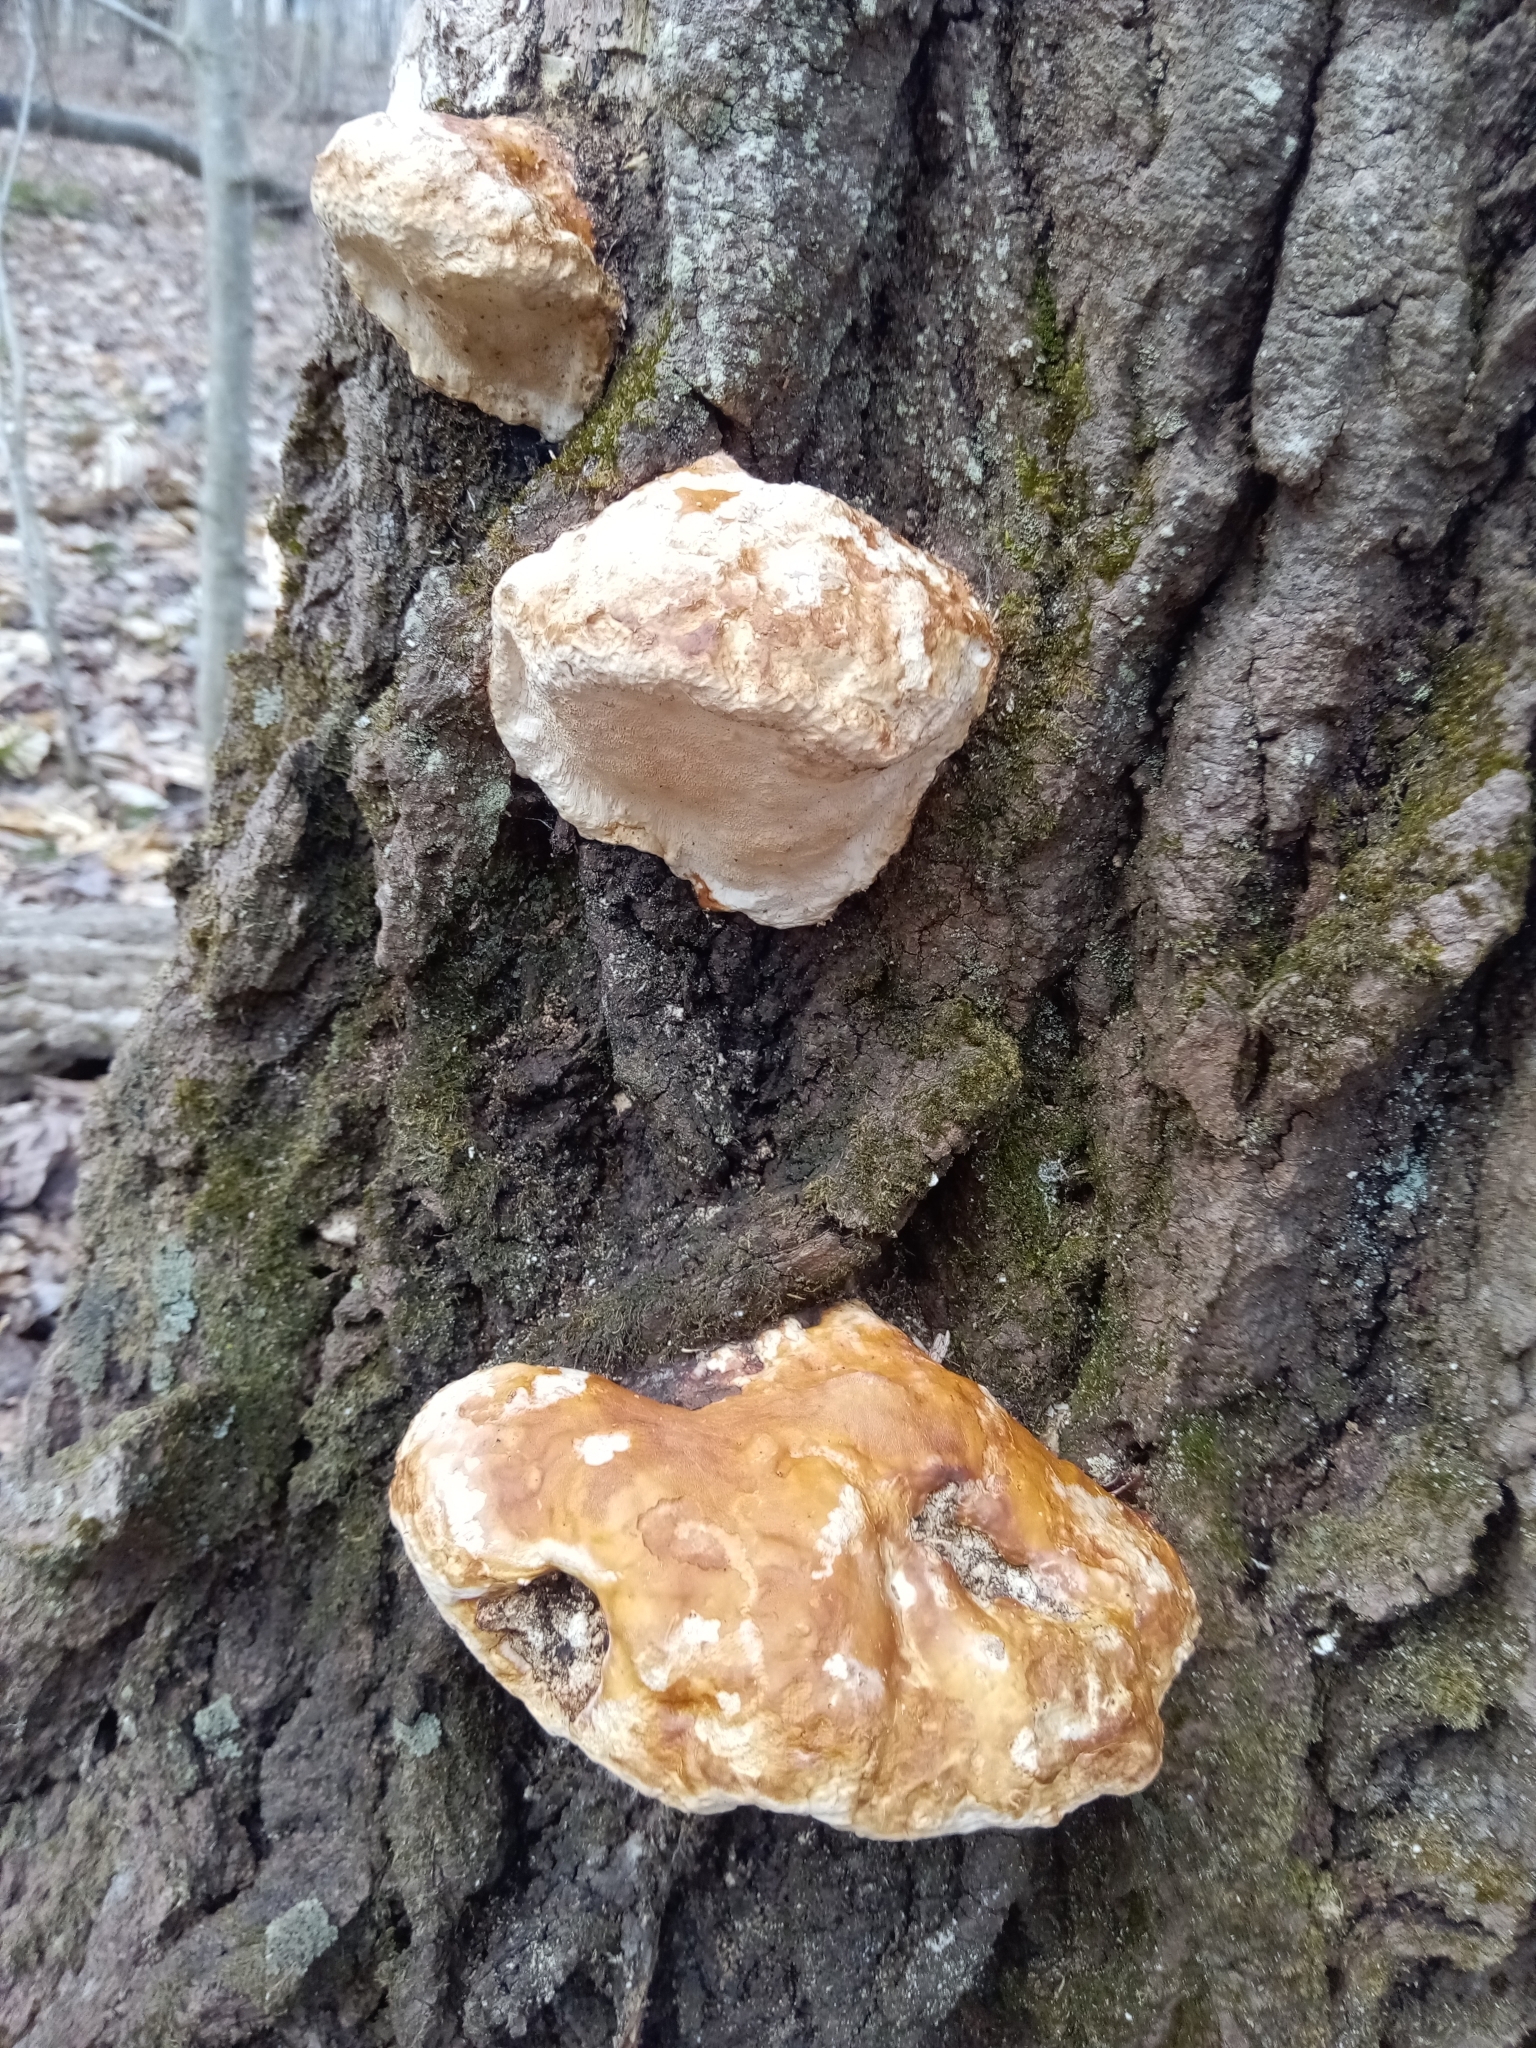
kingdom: Fungi
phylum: Basidiomycota
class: Agaricomycetes
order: Polyporales
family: Fomitopsidaceae
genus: Fomitopsis
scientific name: Fomitopsis mounceae
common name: Northern red belt
